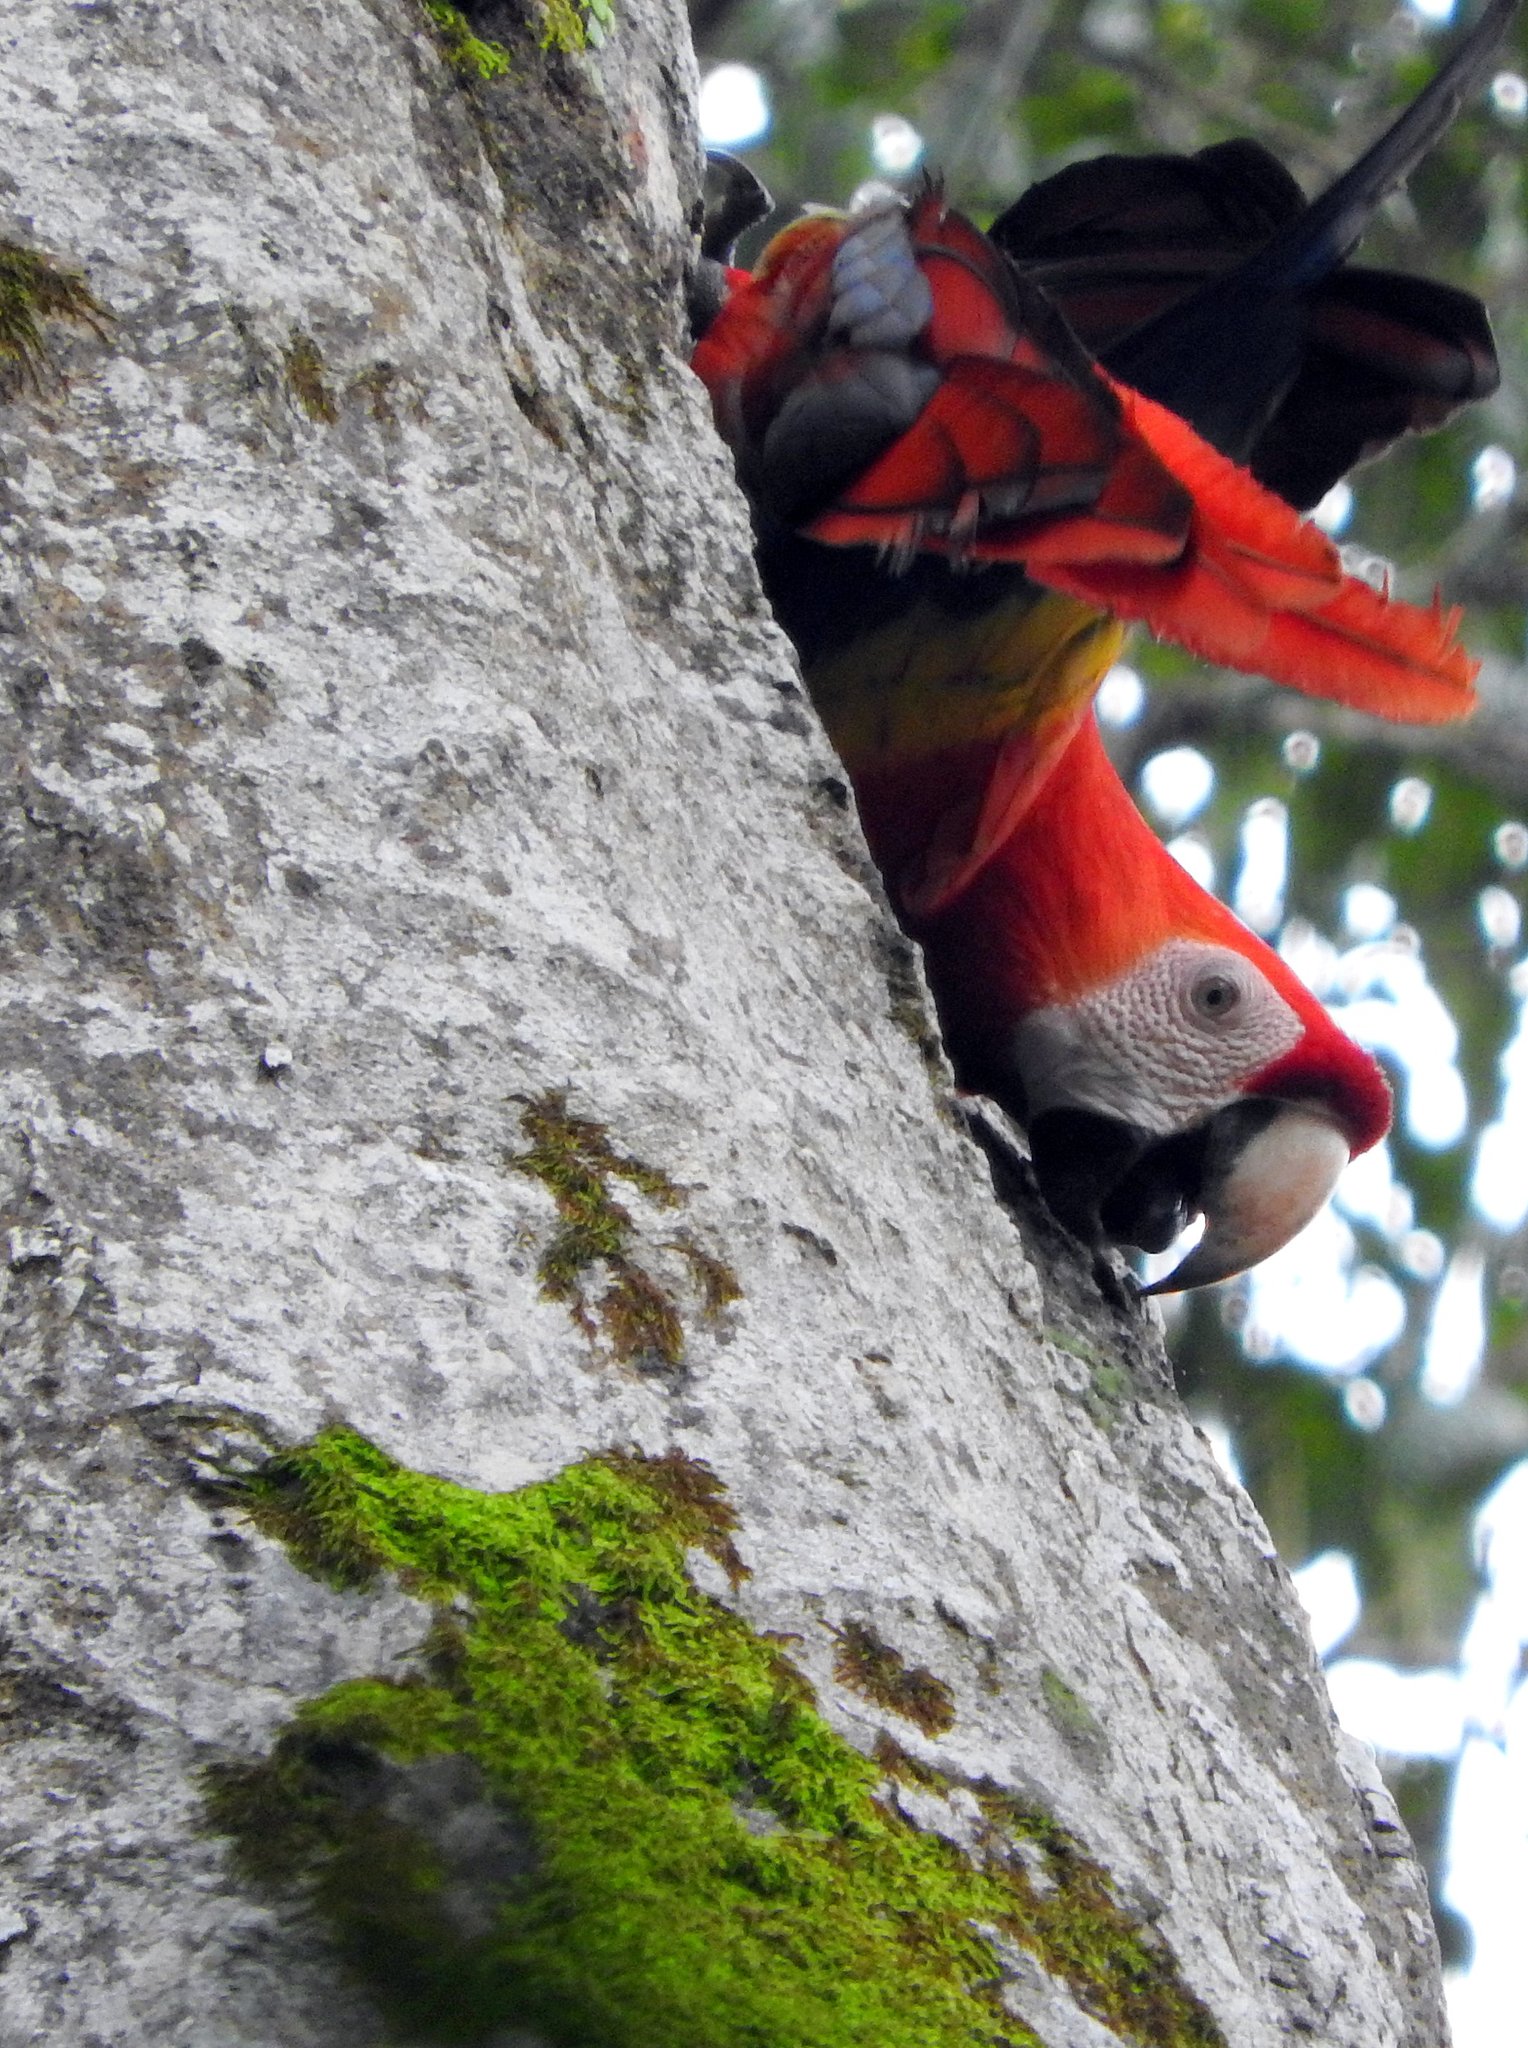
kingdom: Animalia
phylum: Chordata
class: Aves
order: Psittaciformes
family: Psittacidae
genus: Ara
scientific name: Ara macao
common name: Scarlet macaw
